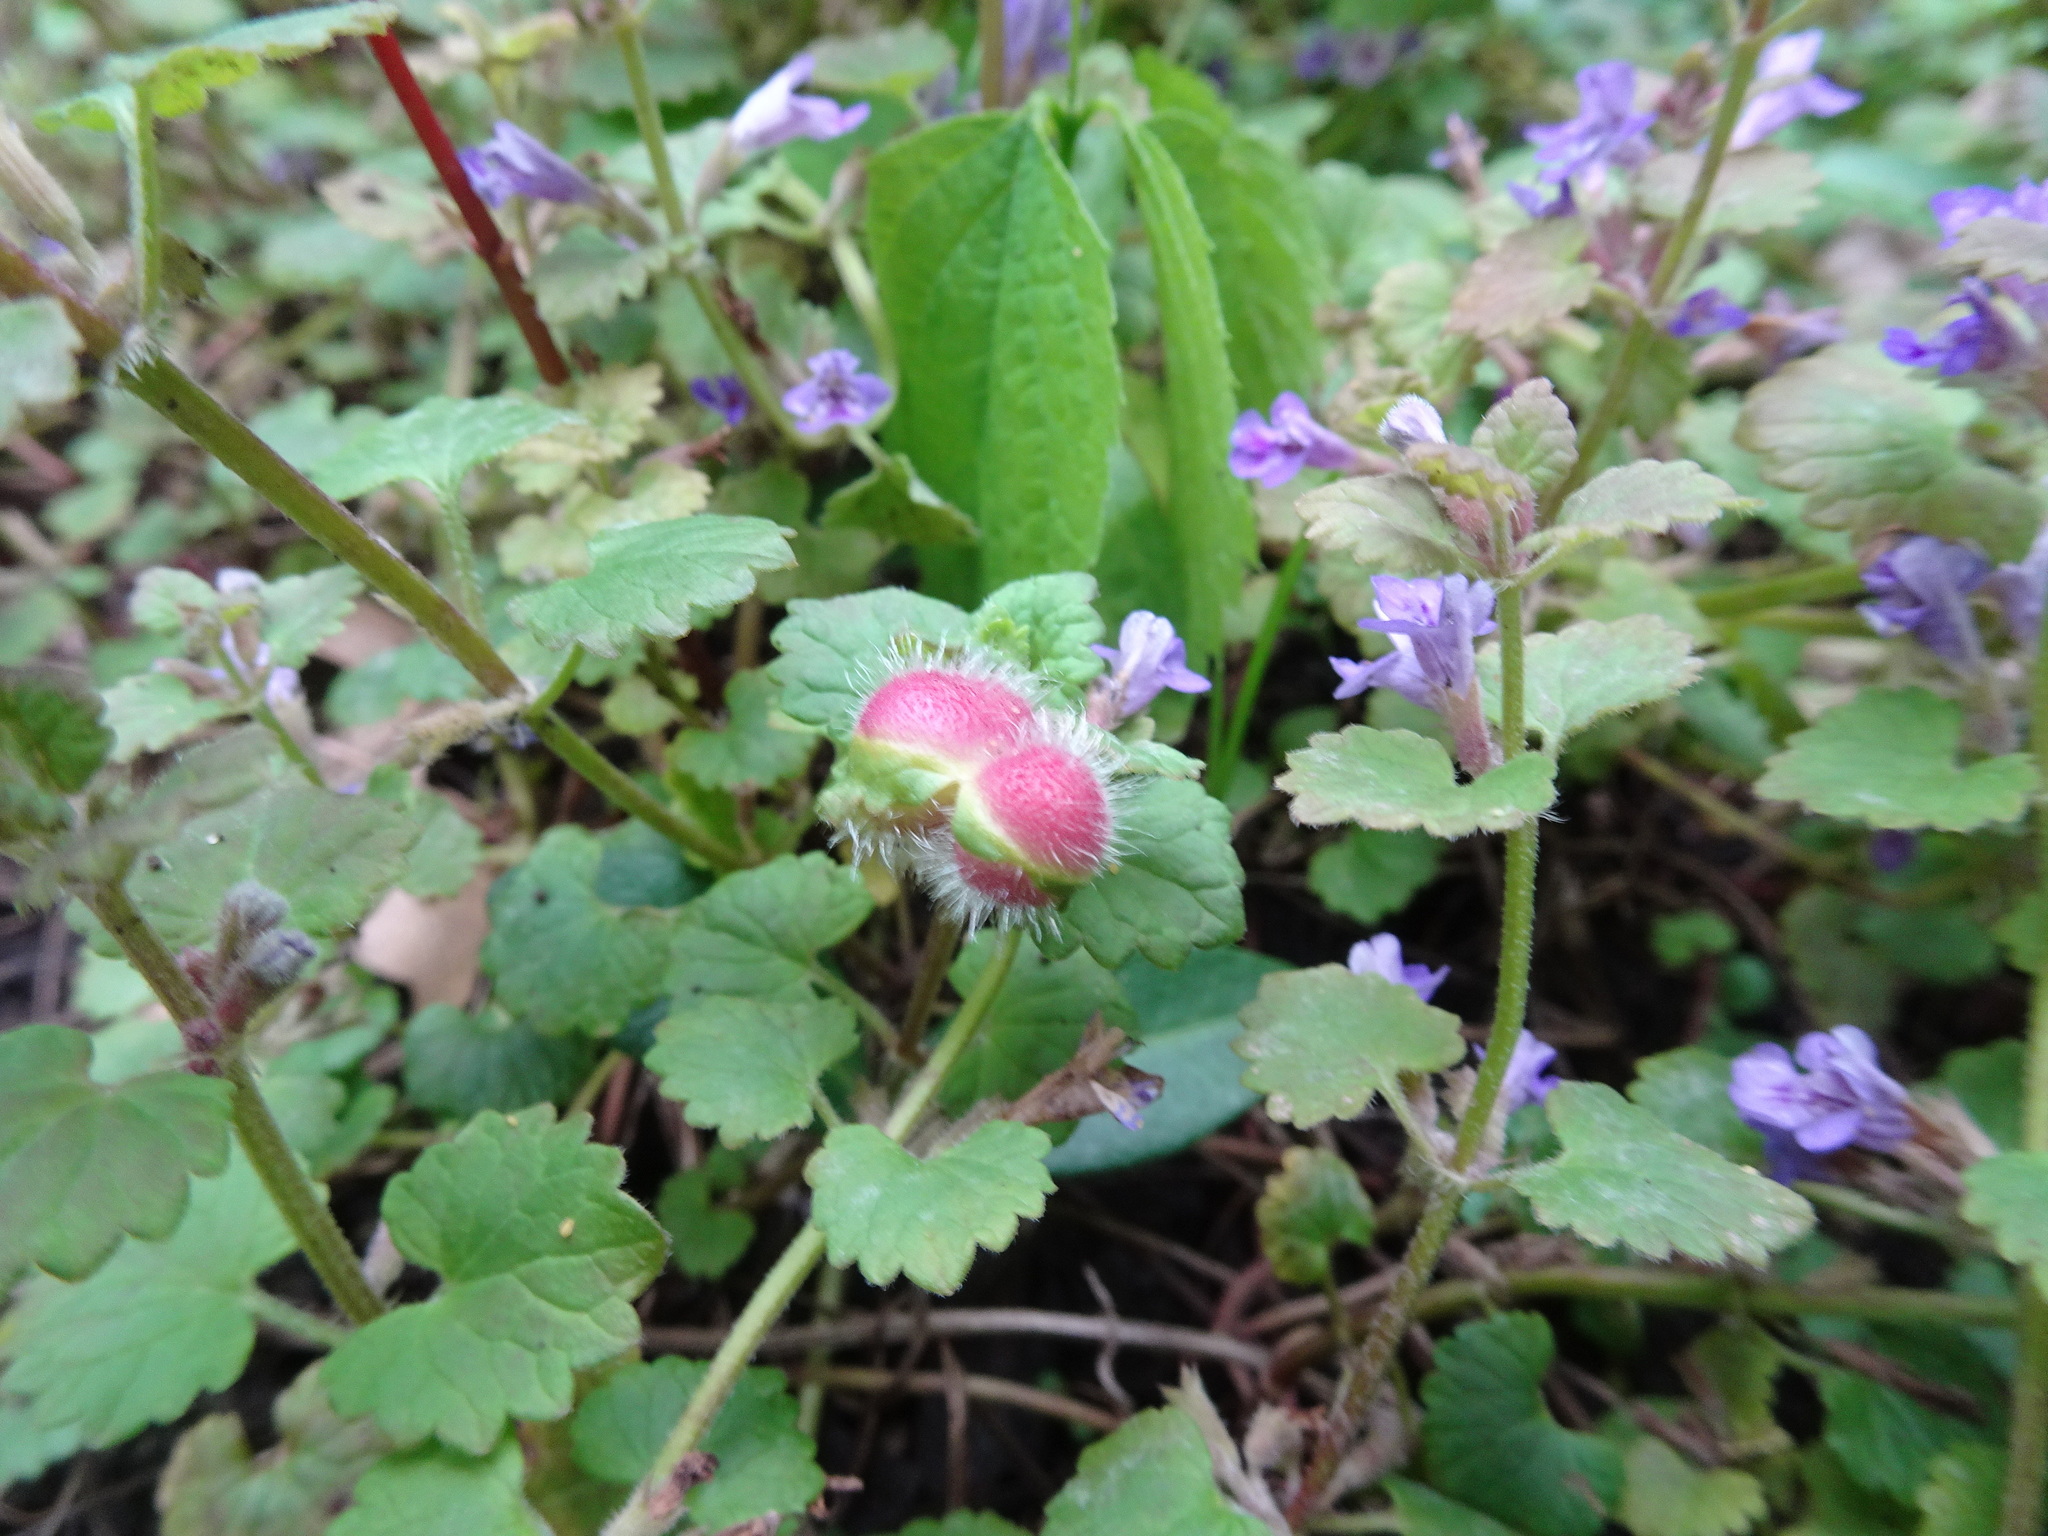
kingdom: Animalia
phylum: Arthropoda
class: Insecta
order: Hymenoptera
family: Cynipidae
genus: Liposthenes
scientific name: Liposthenes glechomae
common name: Gall wasp
